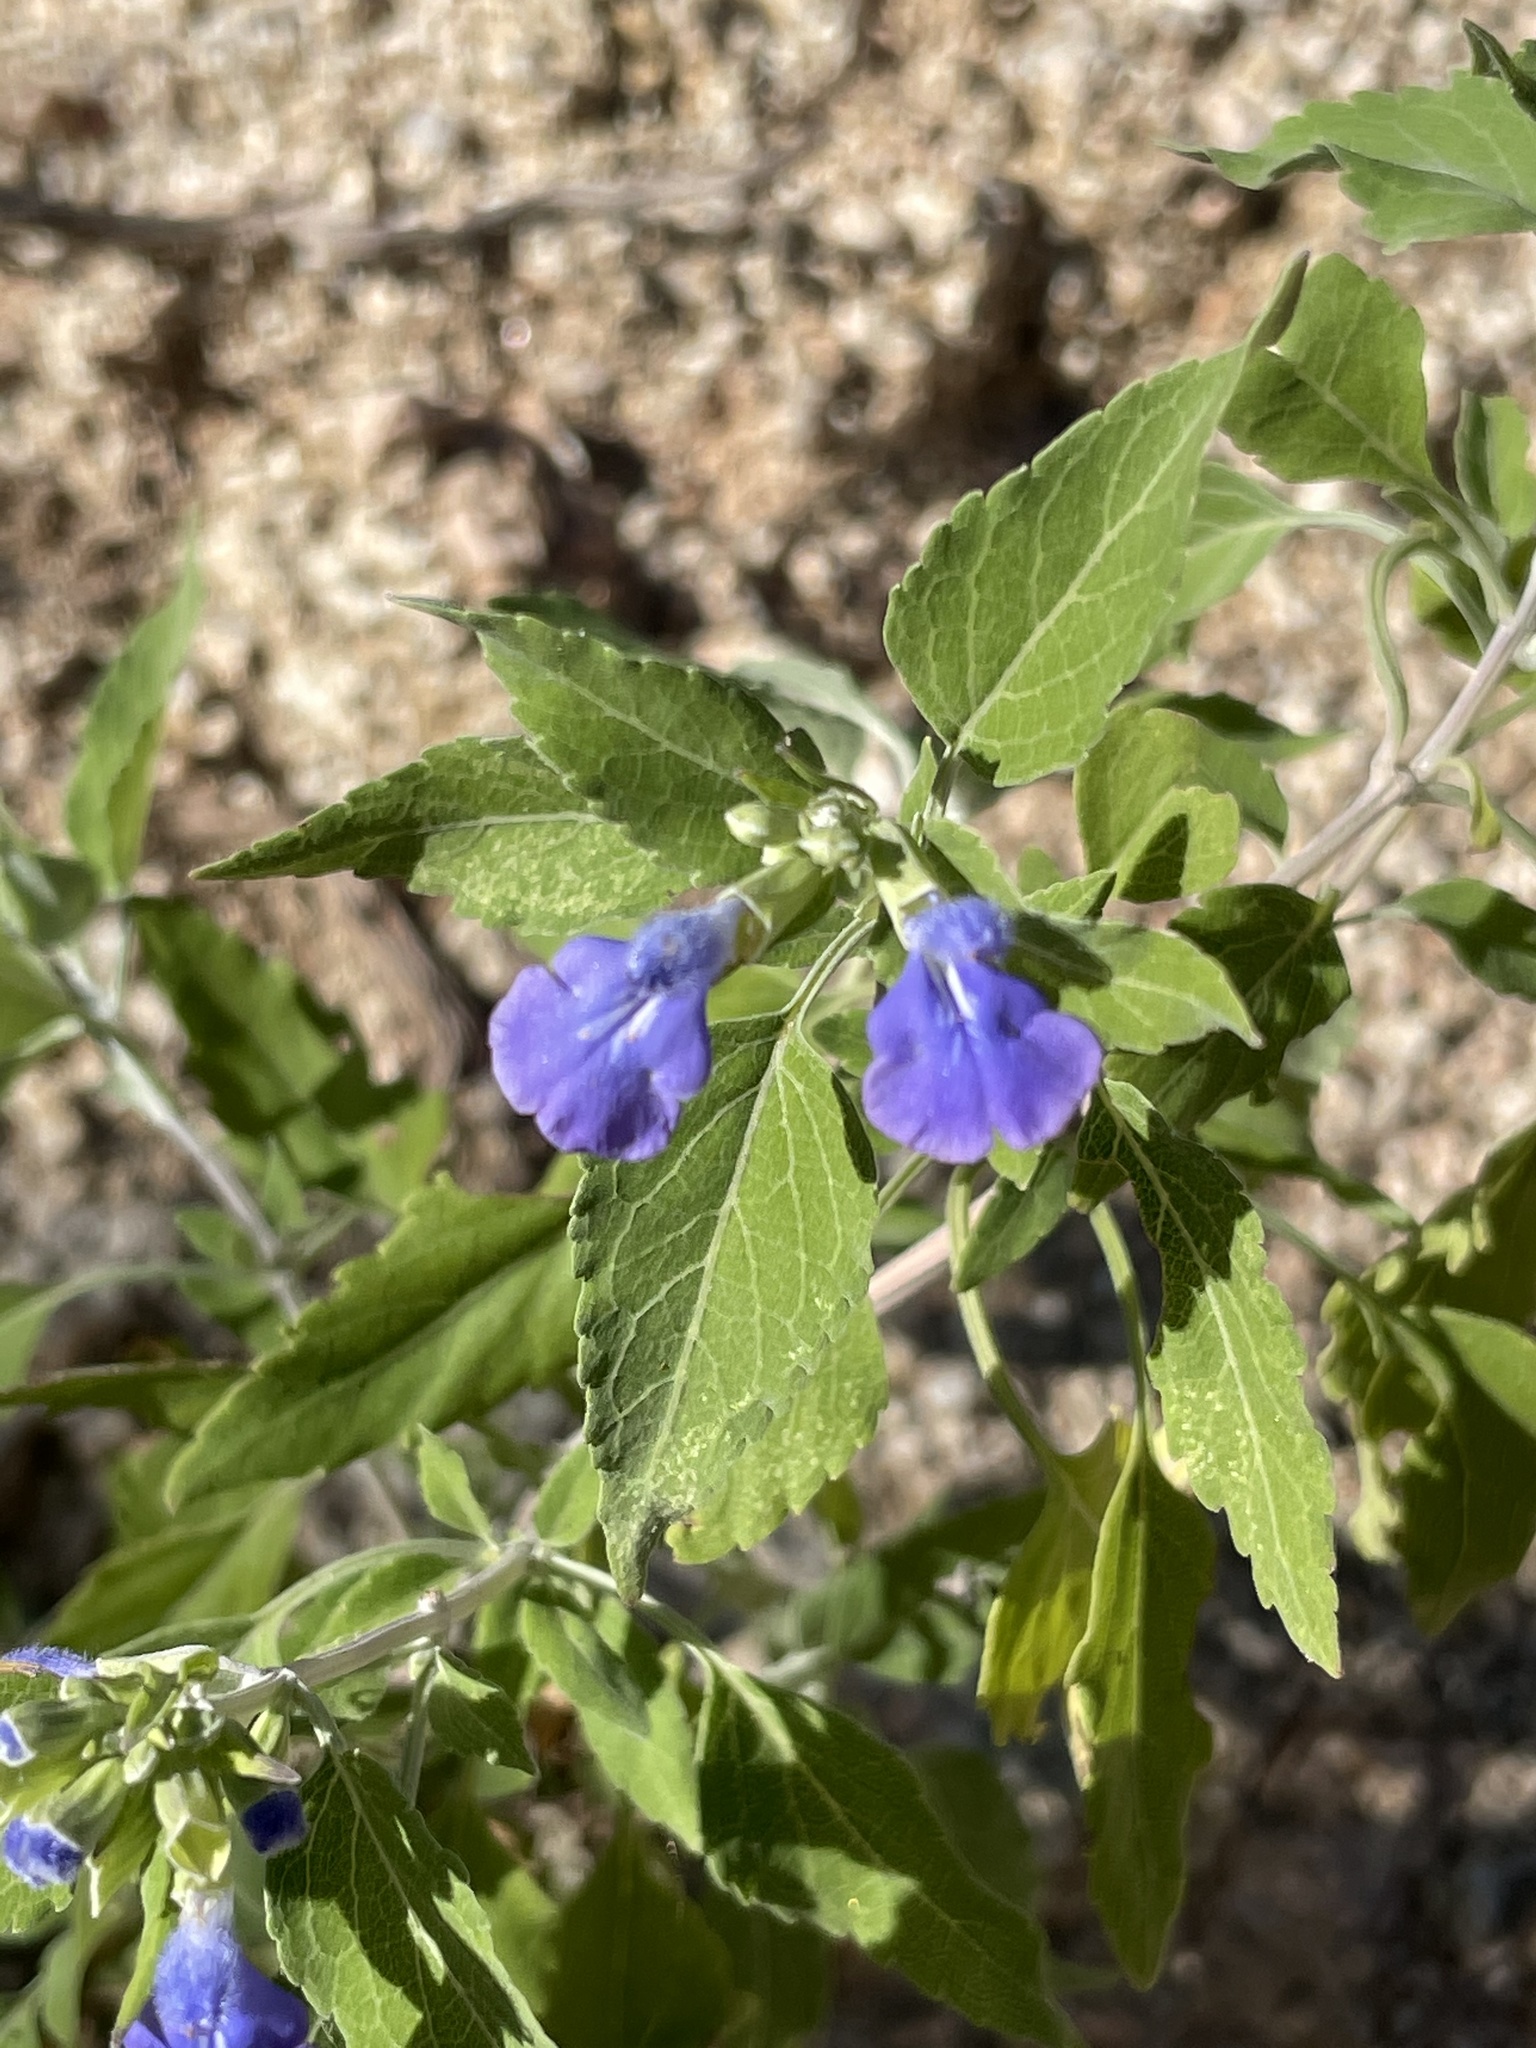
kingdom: Plantae
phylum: Tracheophyta
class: Magnoliopsida
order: Lamiales
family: Lamiaceae
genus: Salvia
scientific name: Salvia similis
